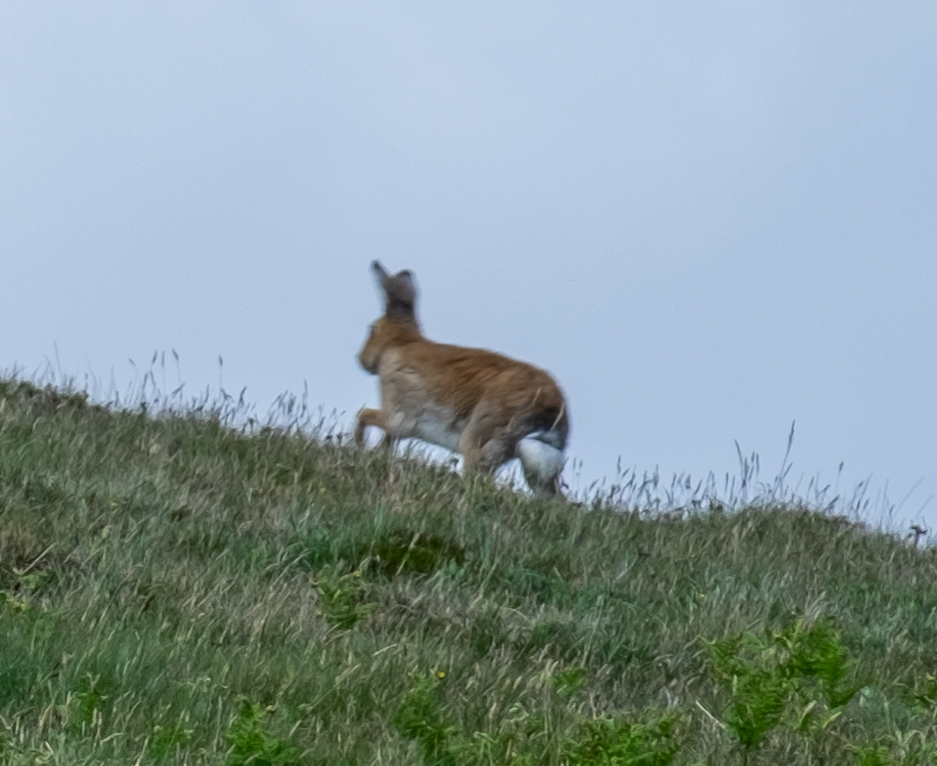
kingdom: Animalia
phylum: Chordata
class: Mammalia
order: Lagomorpha
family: Leporidae
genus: Lepus
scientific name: Lepus timidus
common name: Mountain hare
